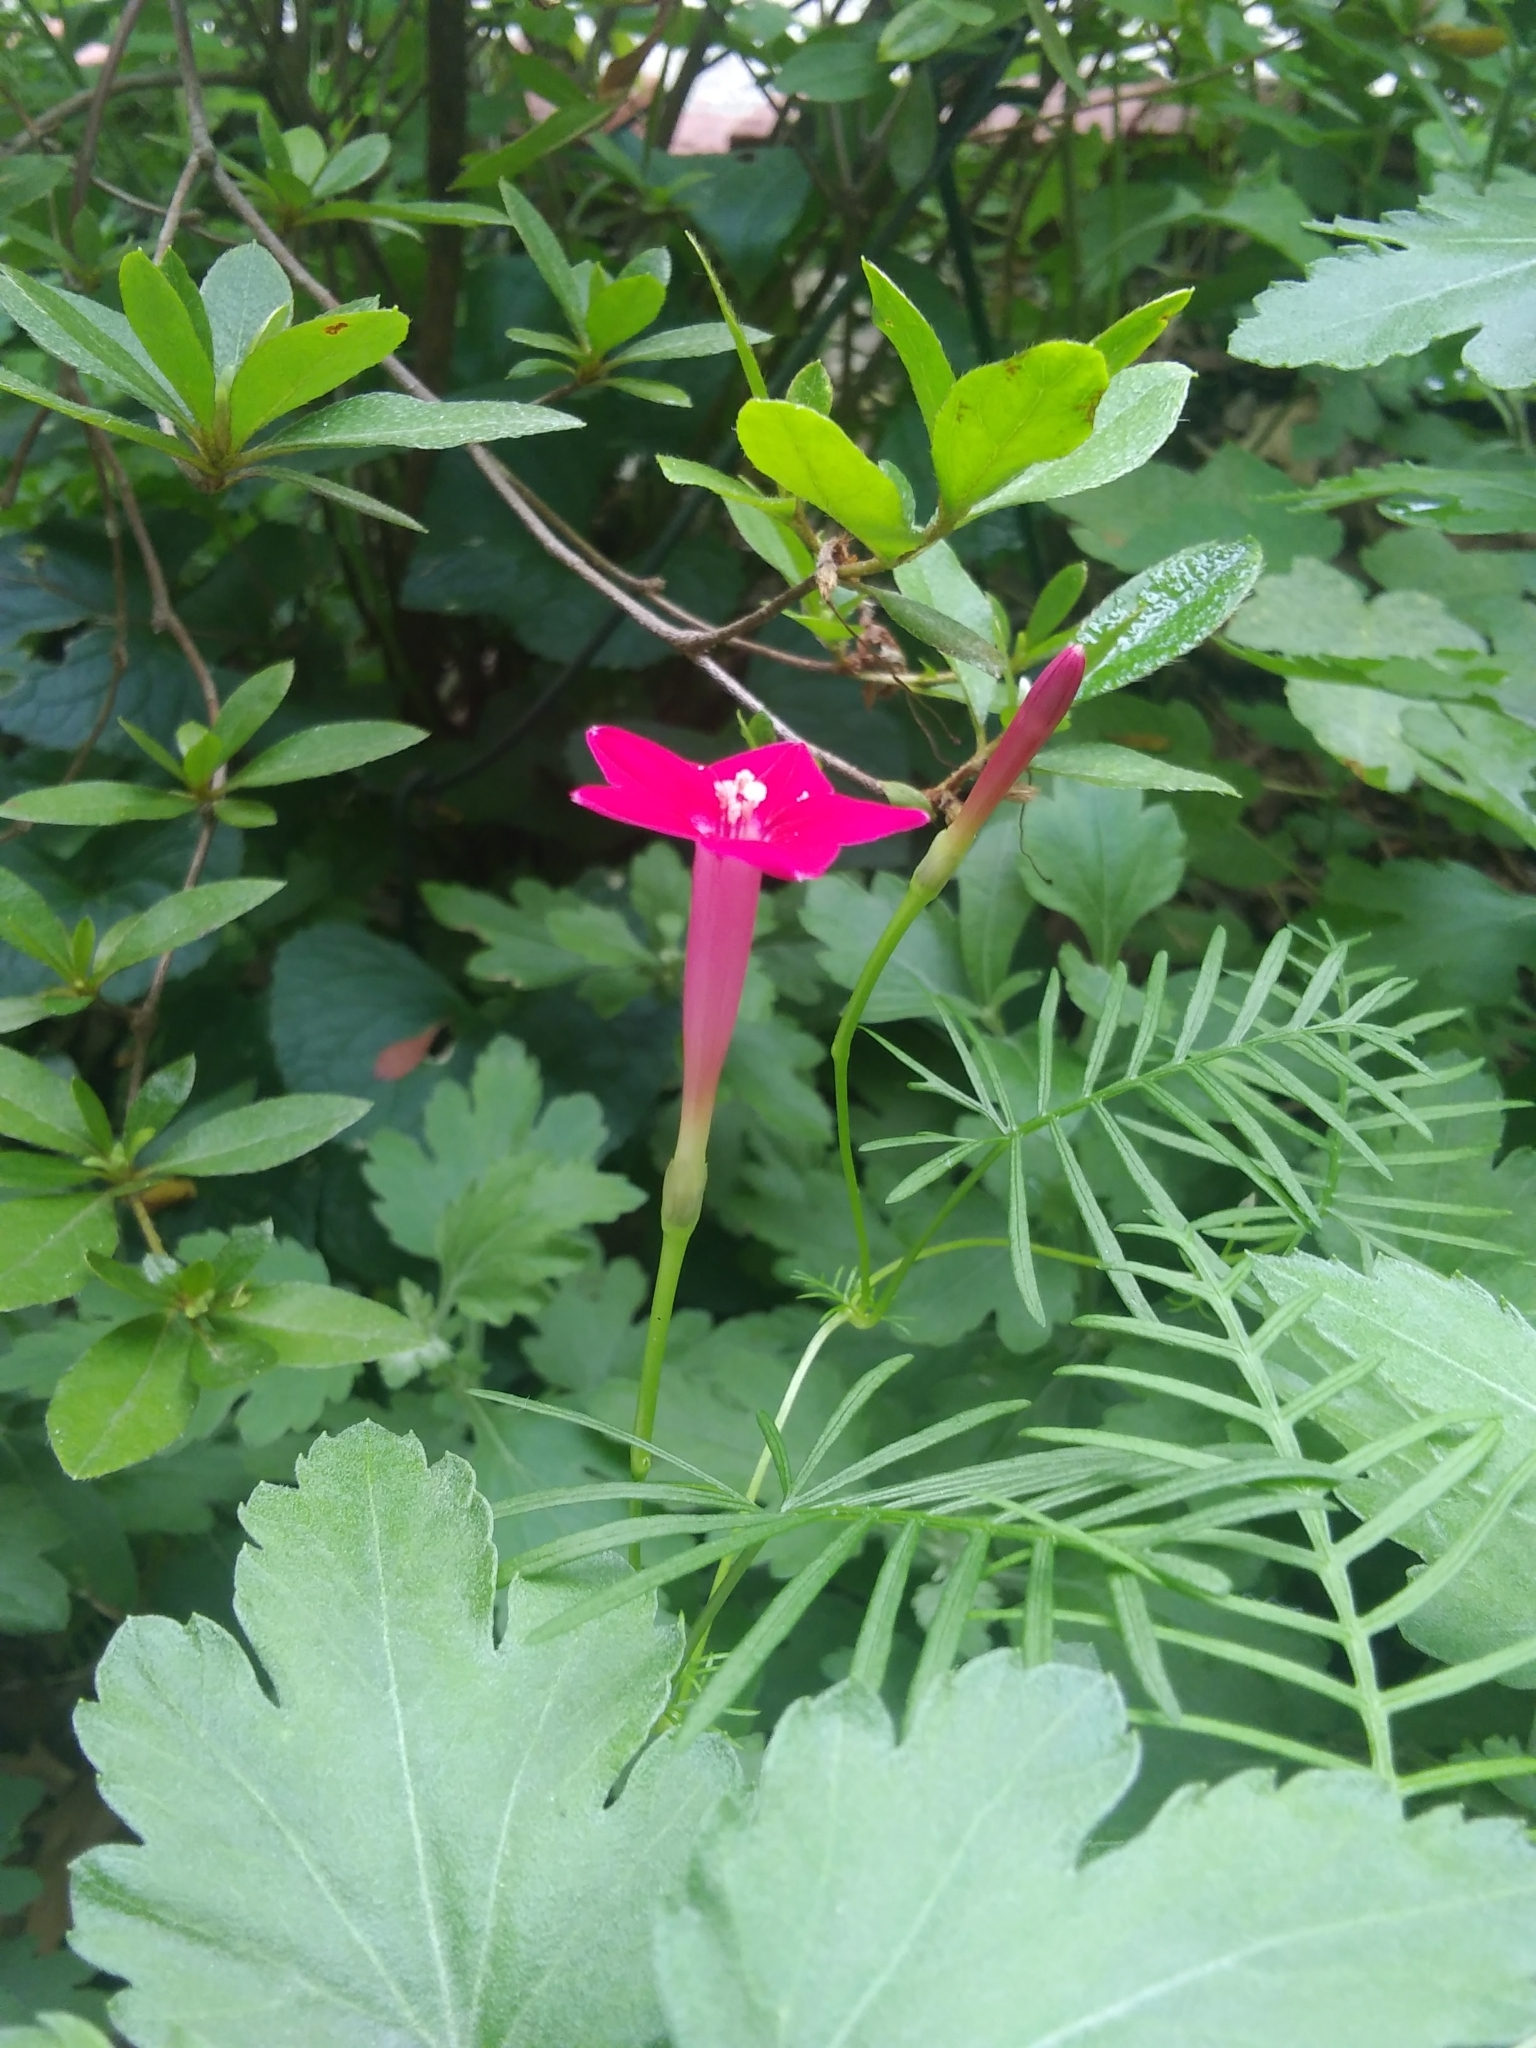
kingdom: Plantae
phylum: Tracheophyta
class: Magnoliopsida
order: Solanales
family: Convolvulaceae
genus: Ipomoea
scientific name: Ipomoea quamoclit
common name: Cypress vine
